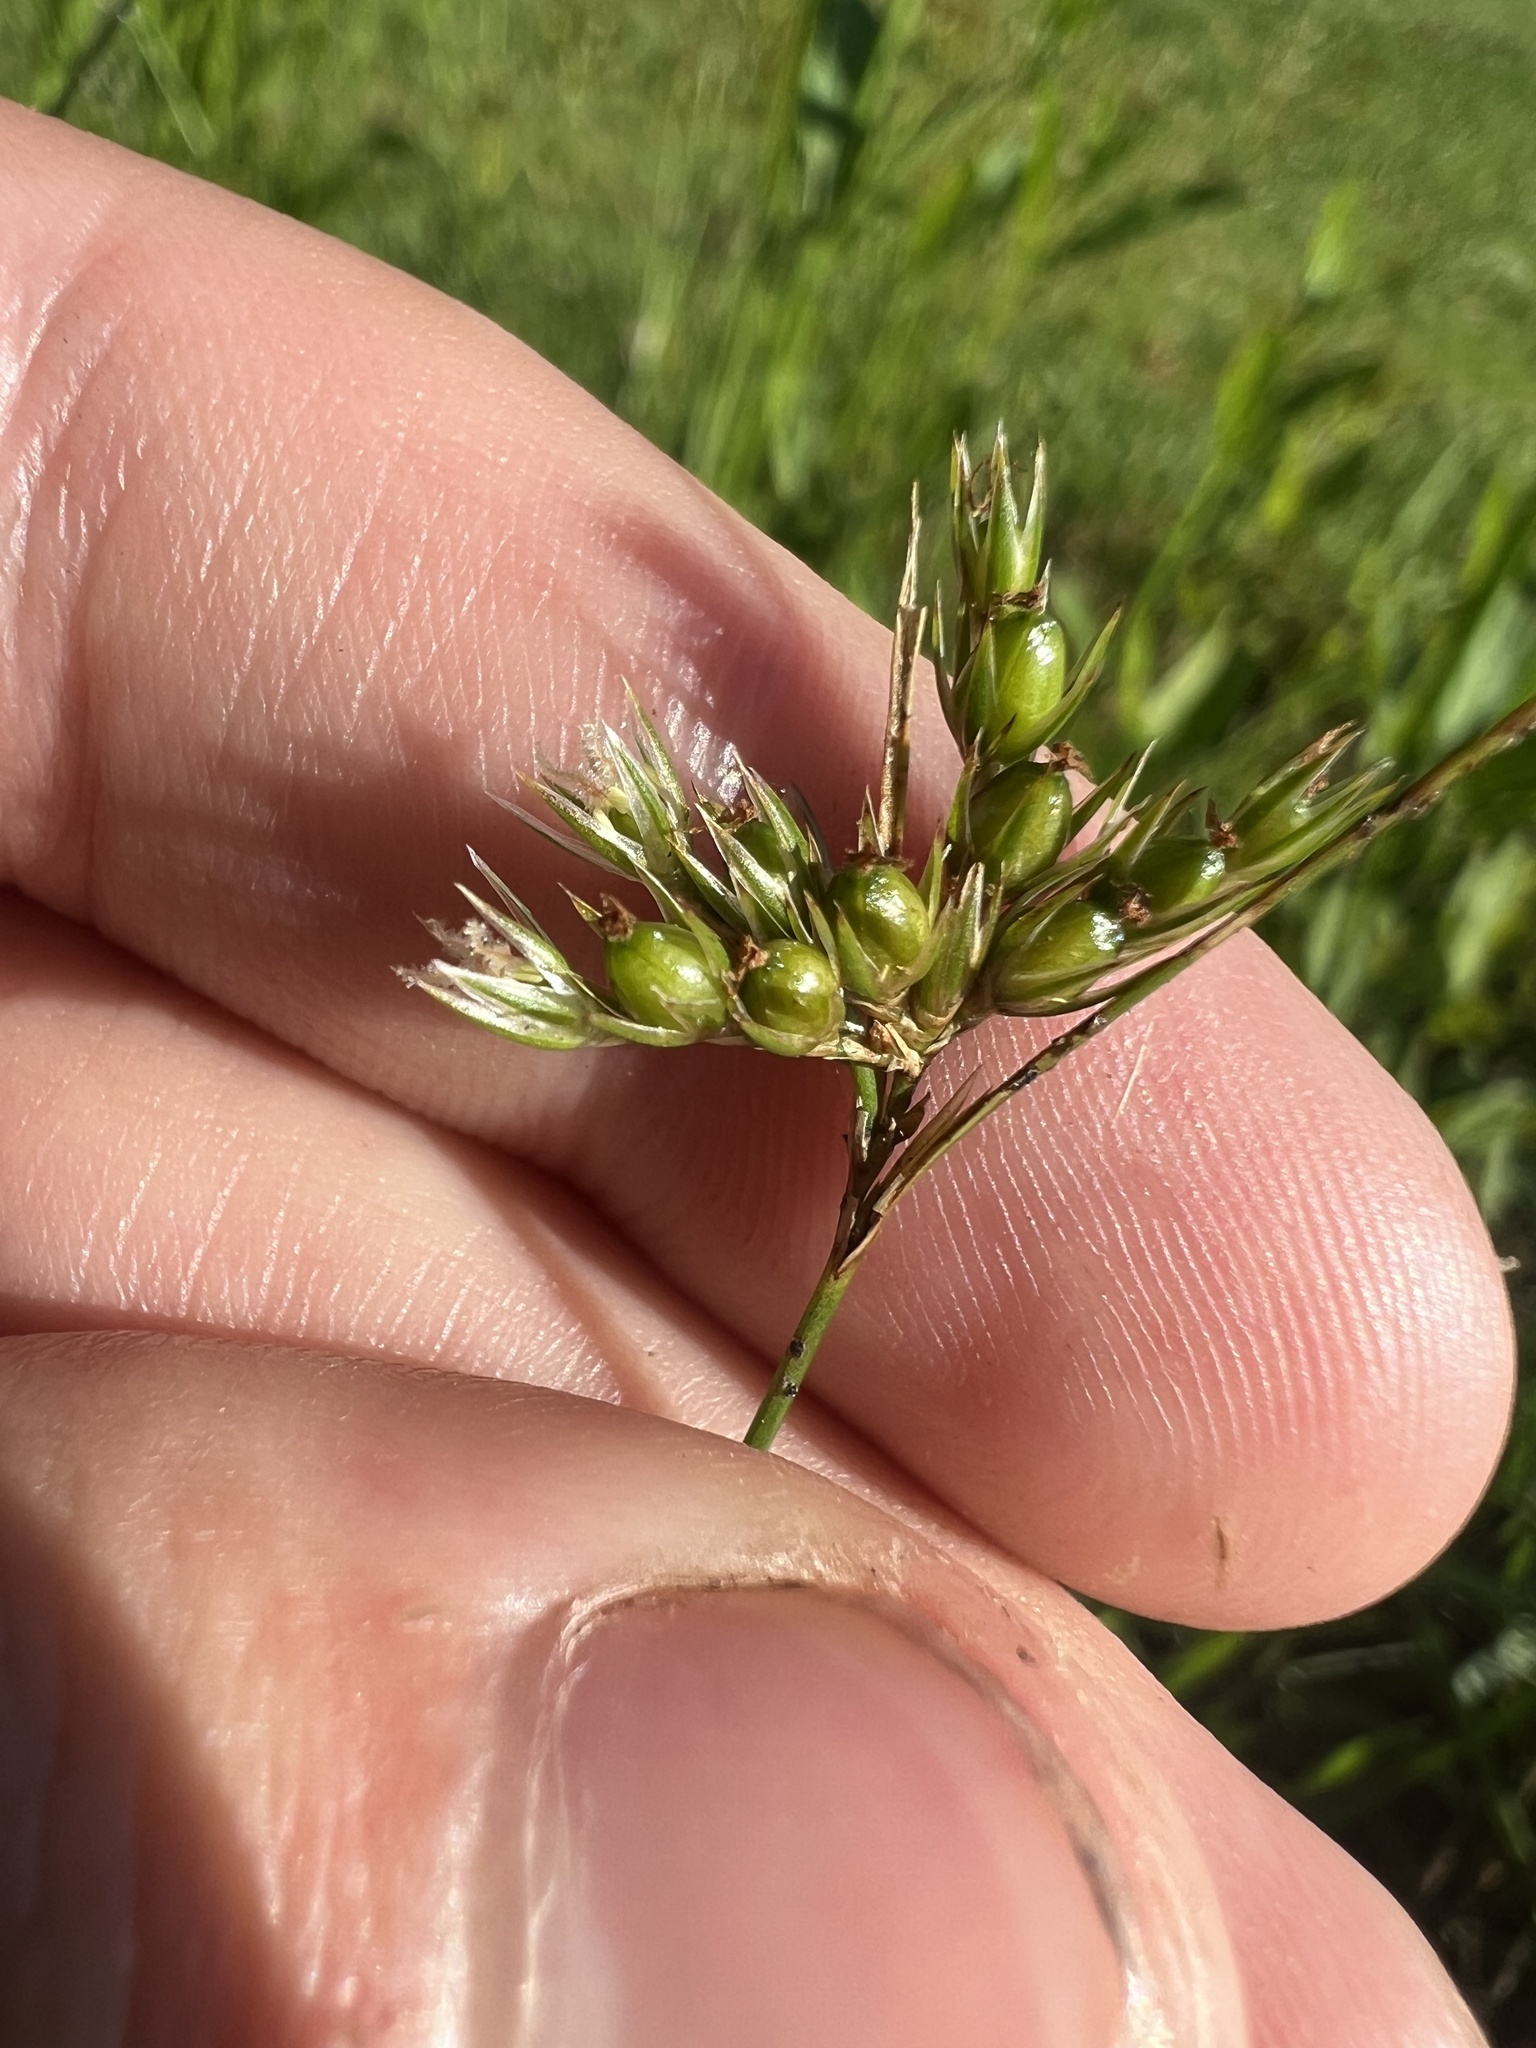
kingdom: Plantae
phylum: Tracheophyta
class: Liliopsida
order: Poales
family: Juncaceae
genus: Juncus
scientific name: Juncus dichotomus
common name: Forked rush
